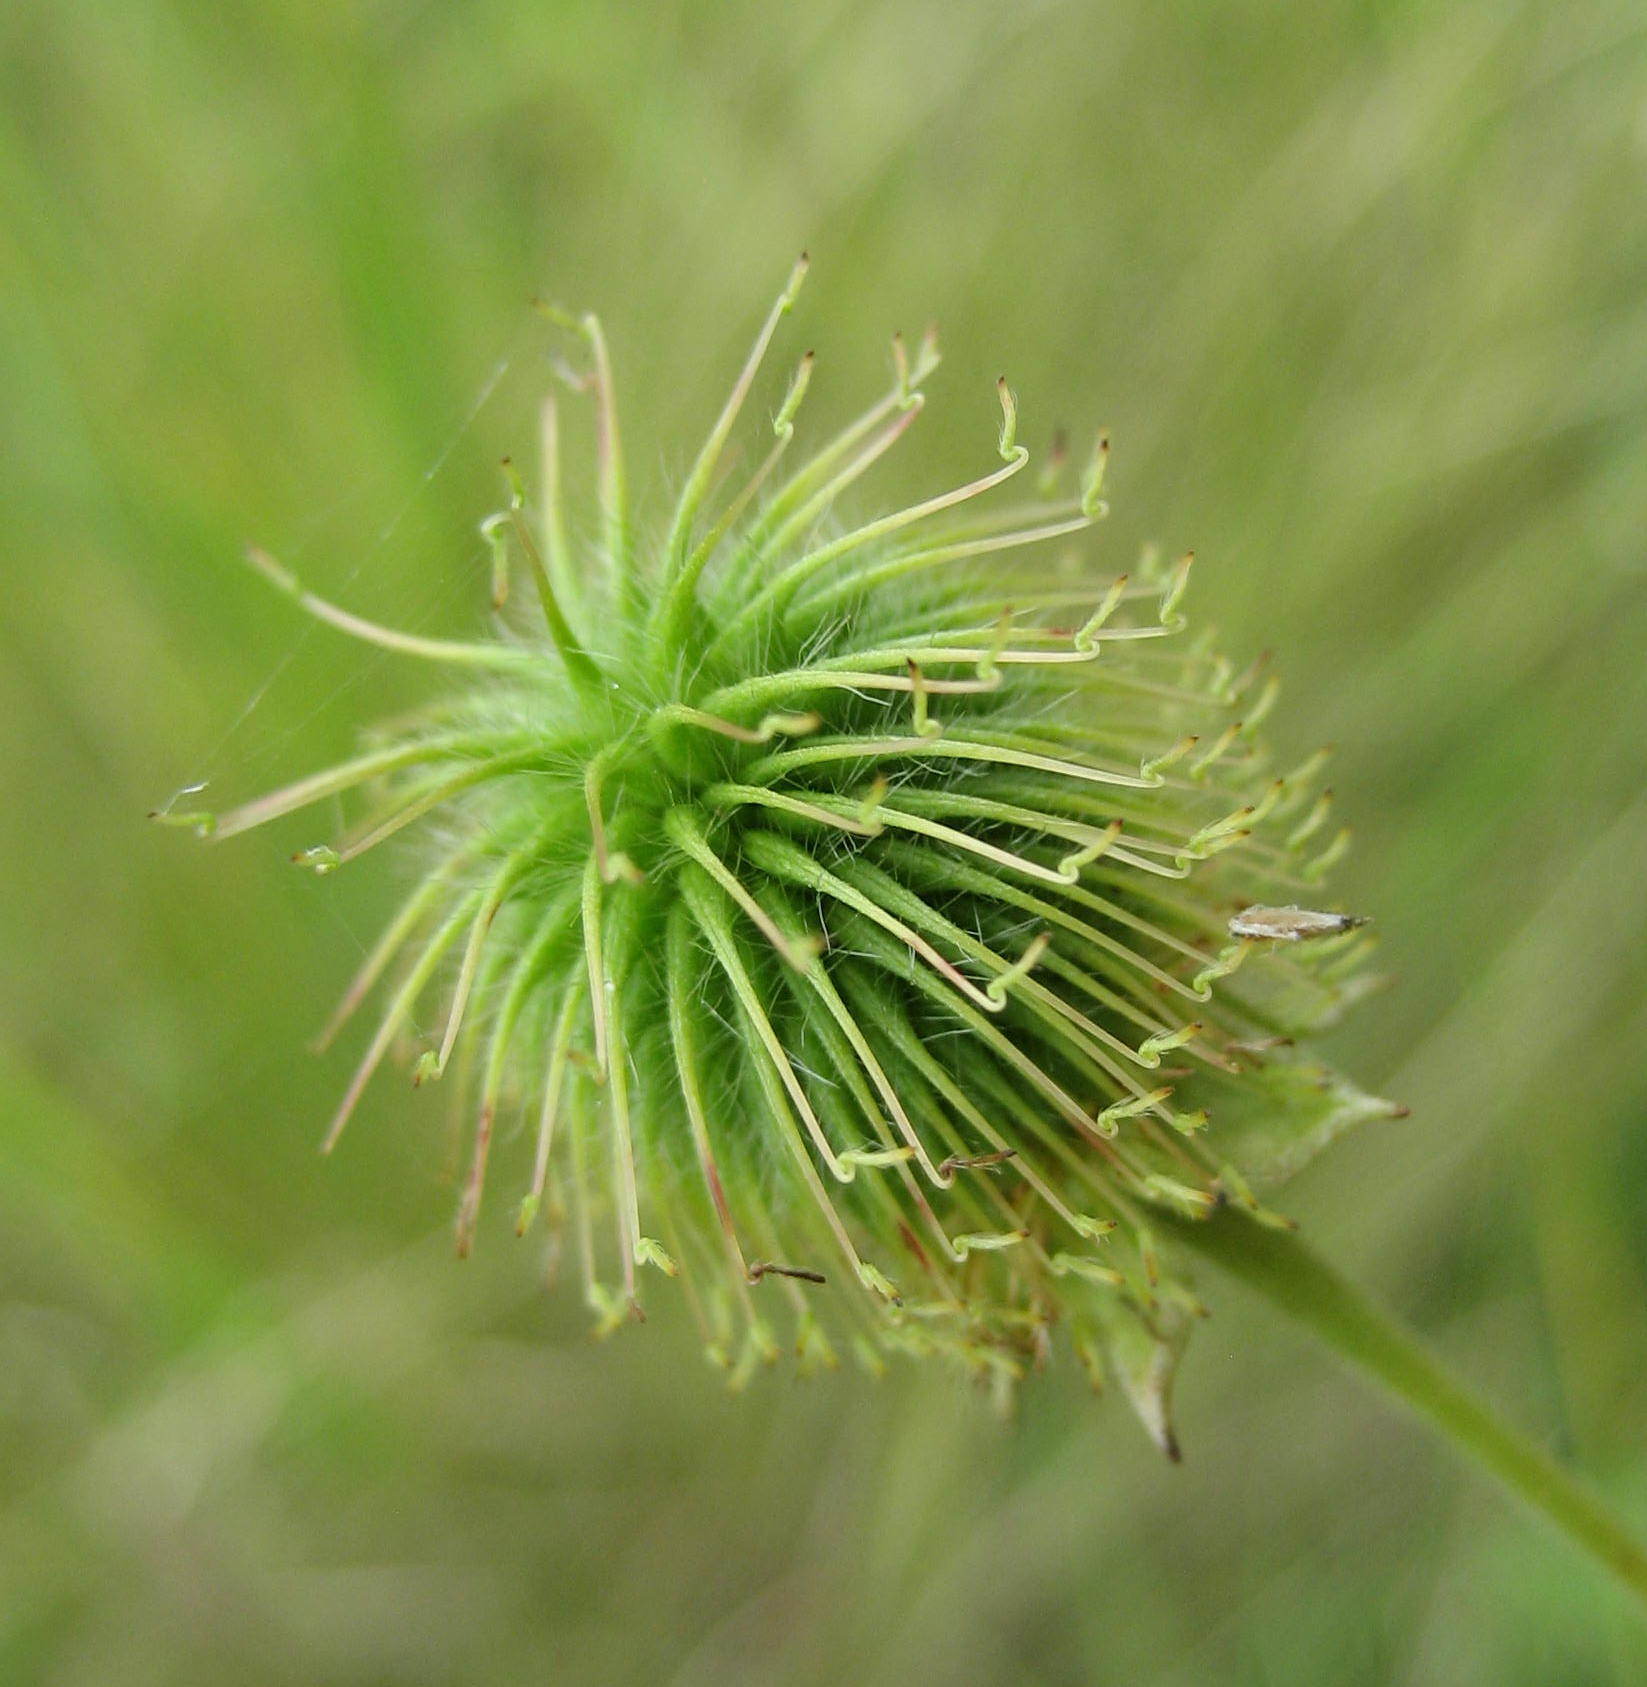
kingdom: Plantae
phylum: Tracheophyta
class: Magnoliopsida
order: Rosales
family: Rosaceae
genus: Geum
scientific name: Geum aleppicum
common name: Yellow avens
